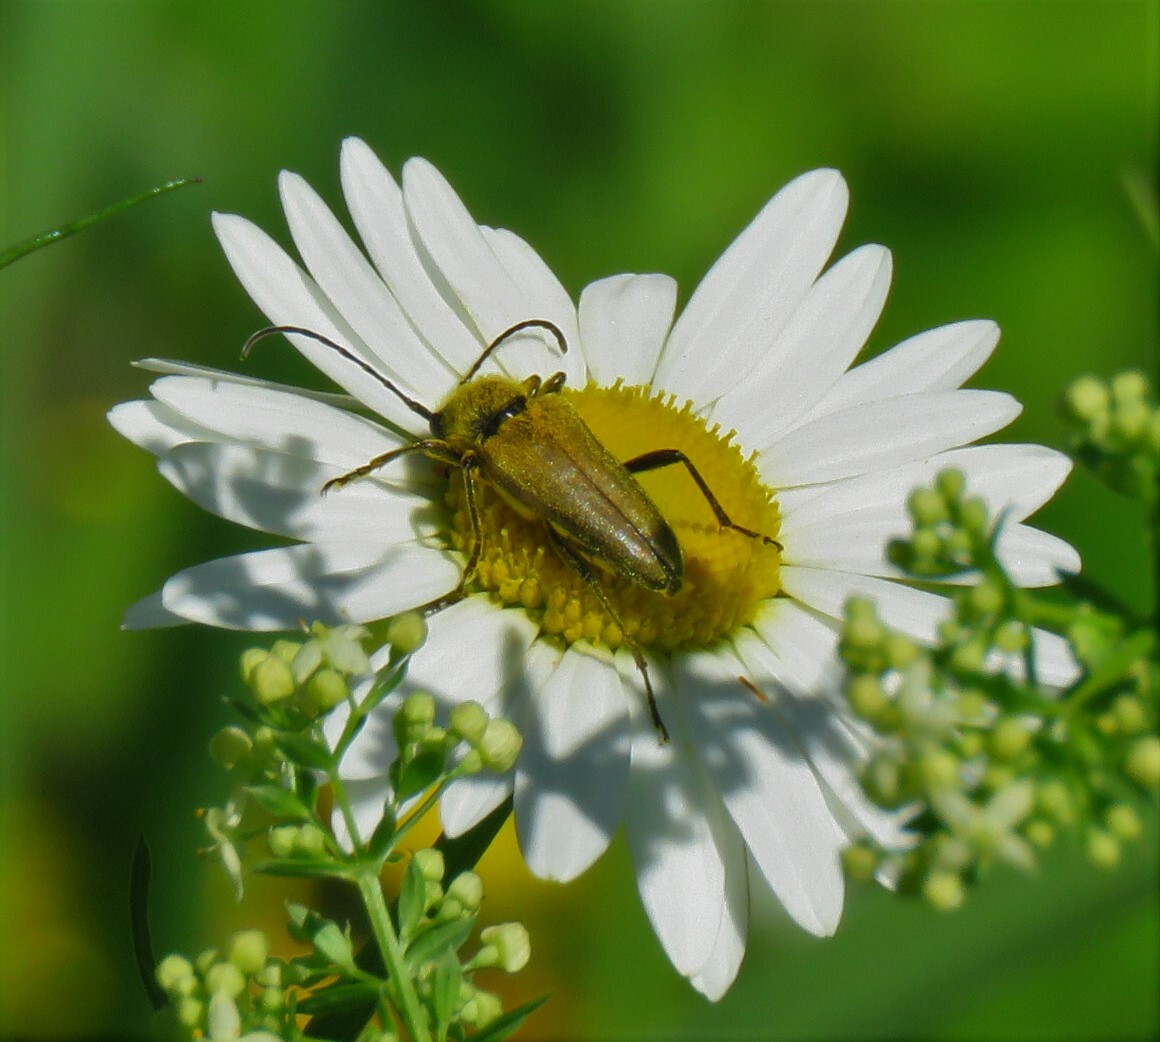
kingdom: Animalia
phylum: Arthropoda
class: Insecta
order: Coleoptera
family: Cerambycidae
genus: Cosmosalia
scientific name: Cosmosalia chrysocoma
